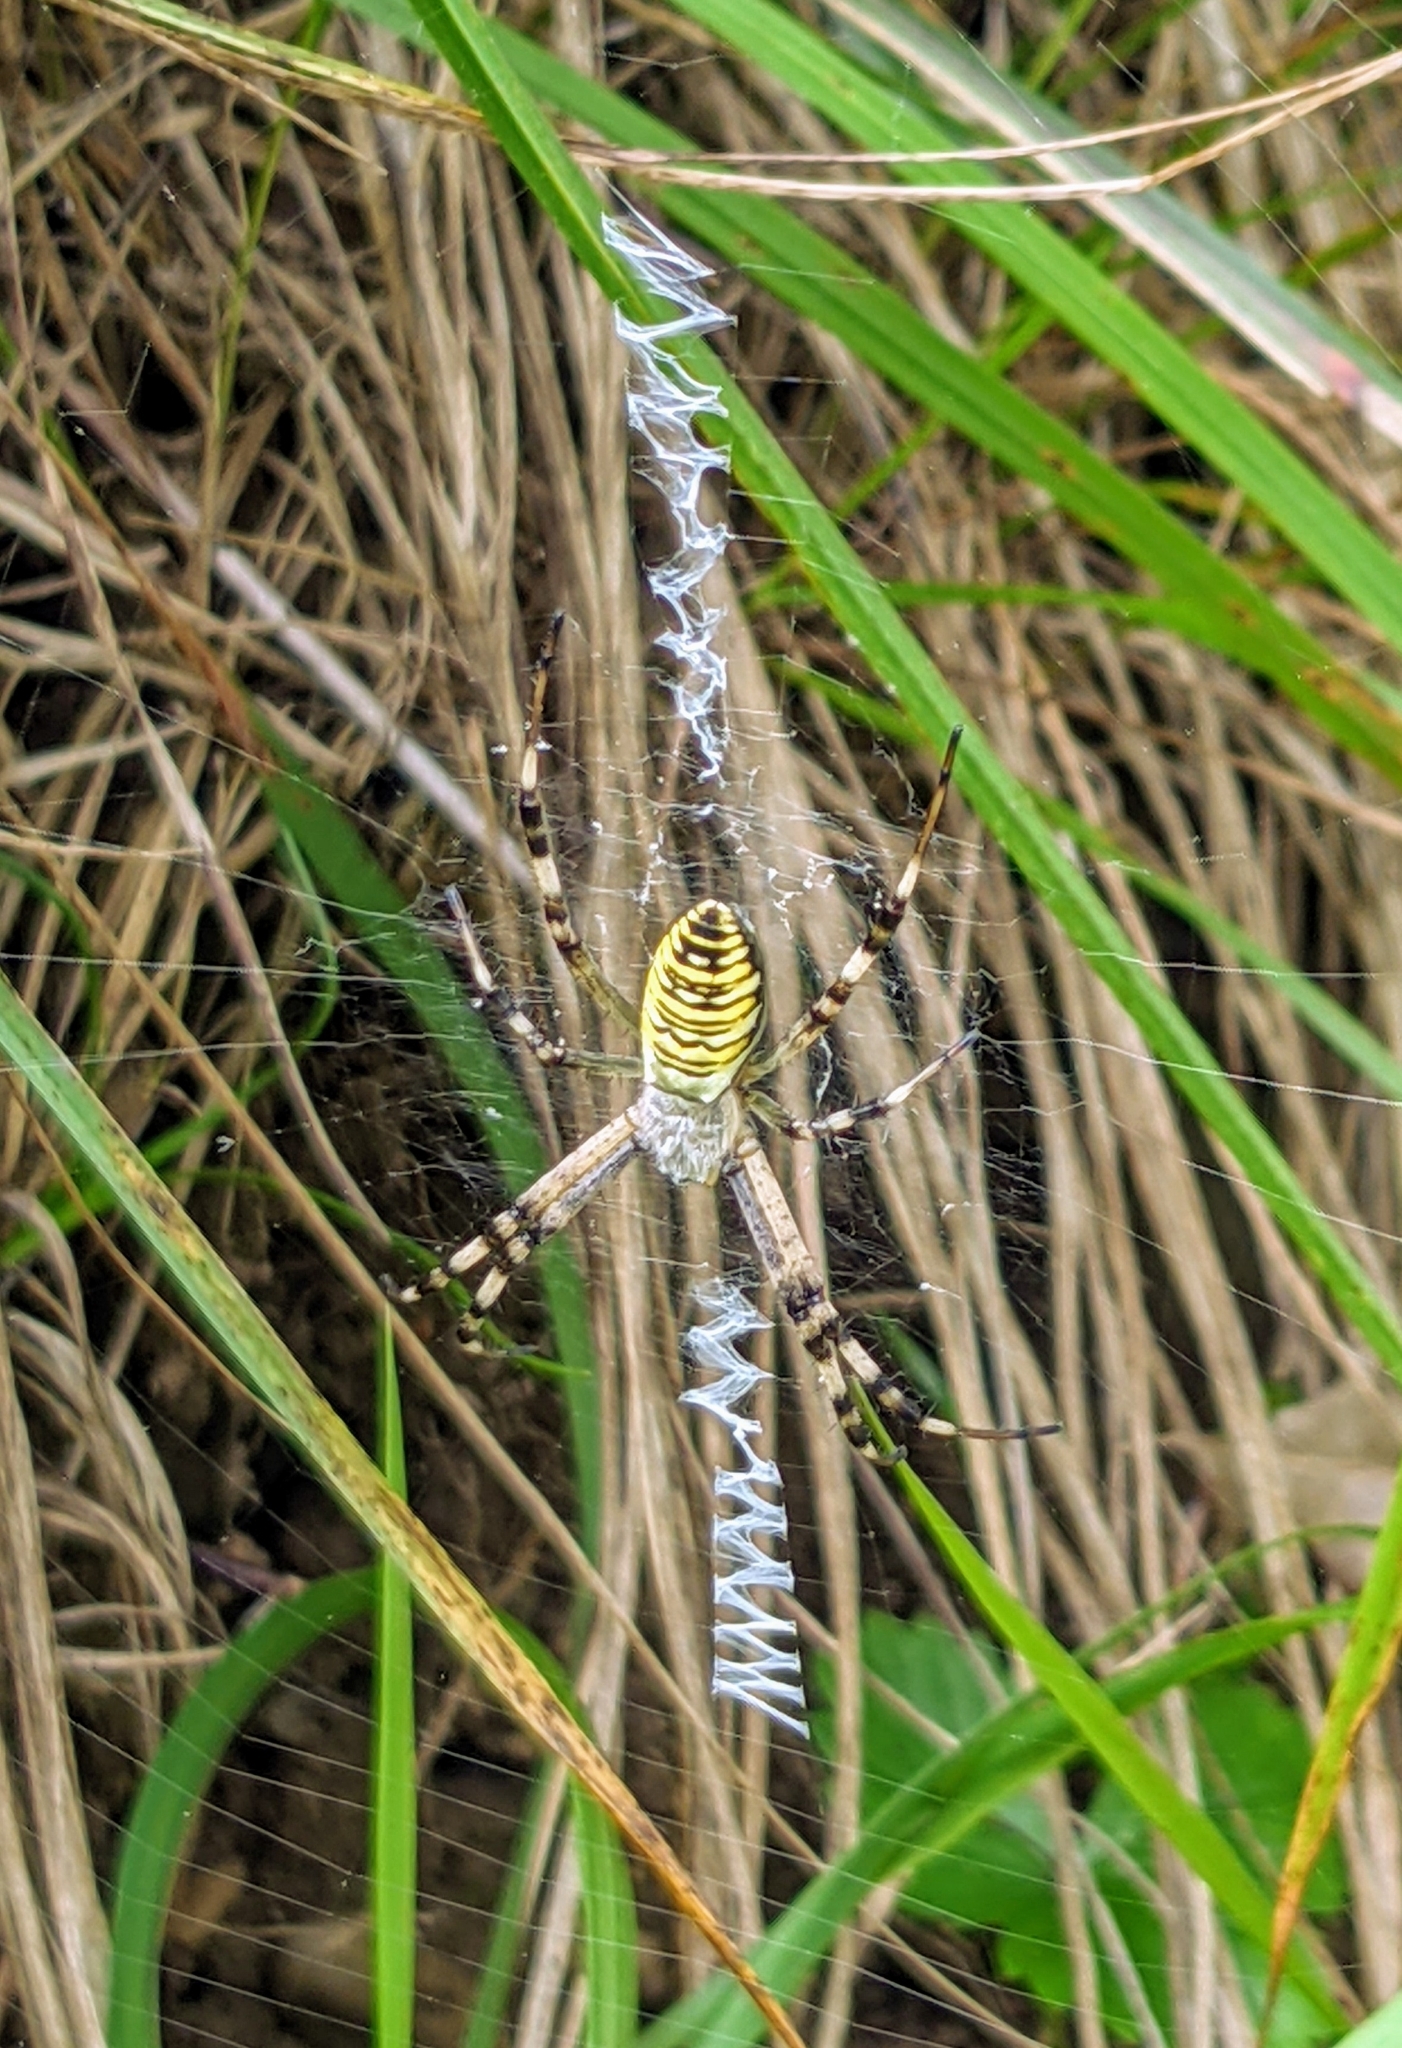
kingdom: Animalia
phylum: Arthropoda
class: Arachnida
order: Araneae
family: Araneidae
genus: Argiope
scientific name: Argiope bruennichi
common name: Wasp spider
